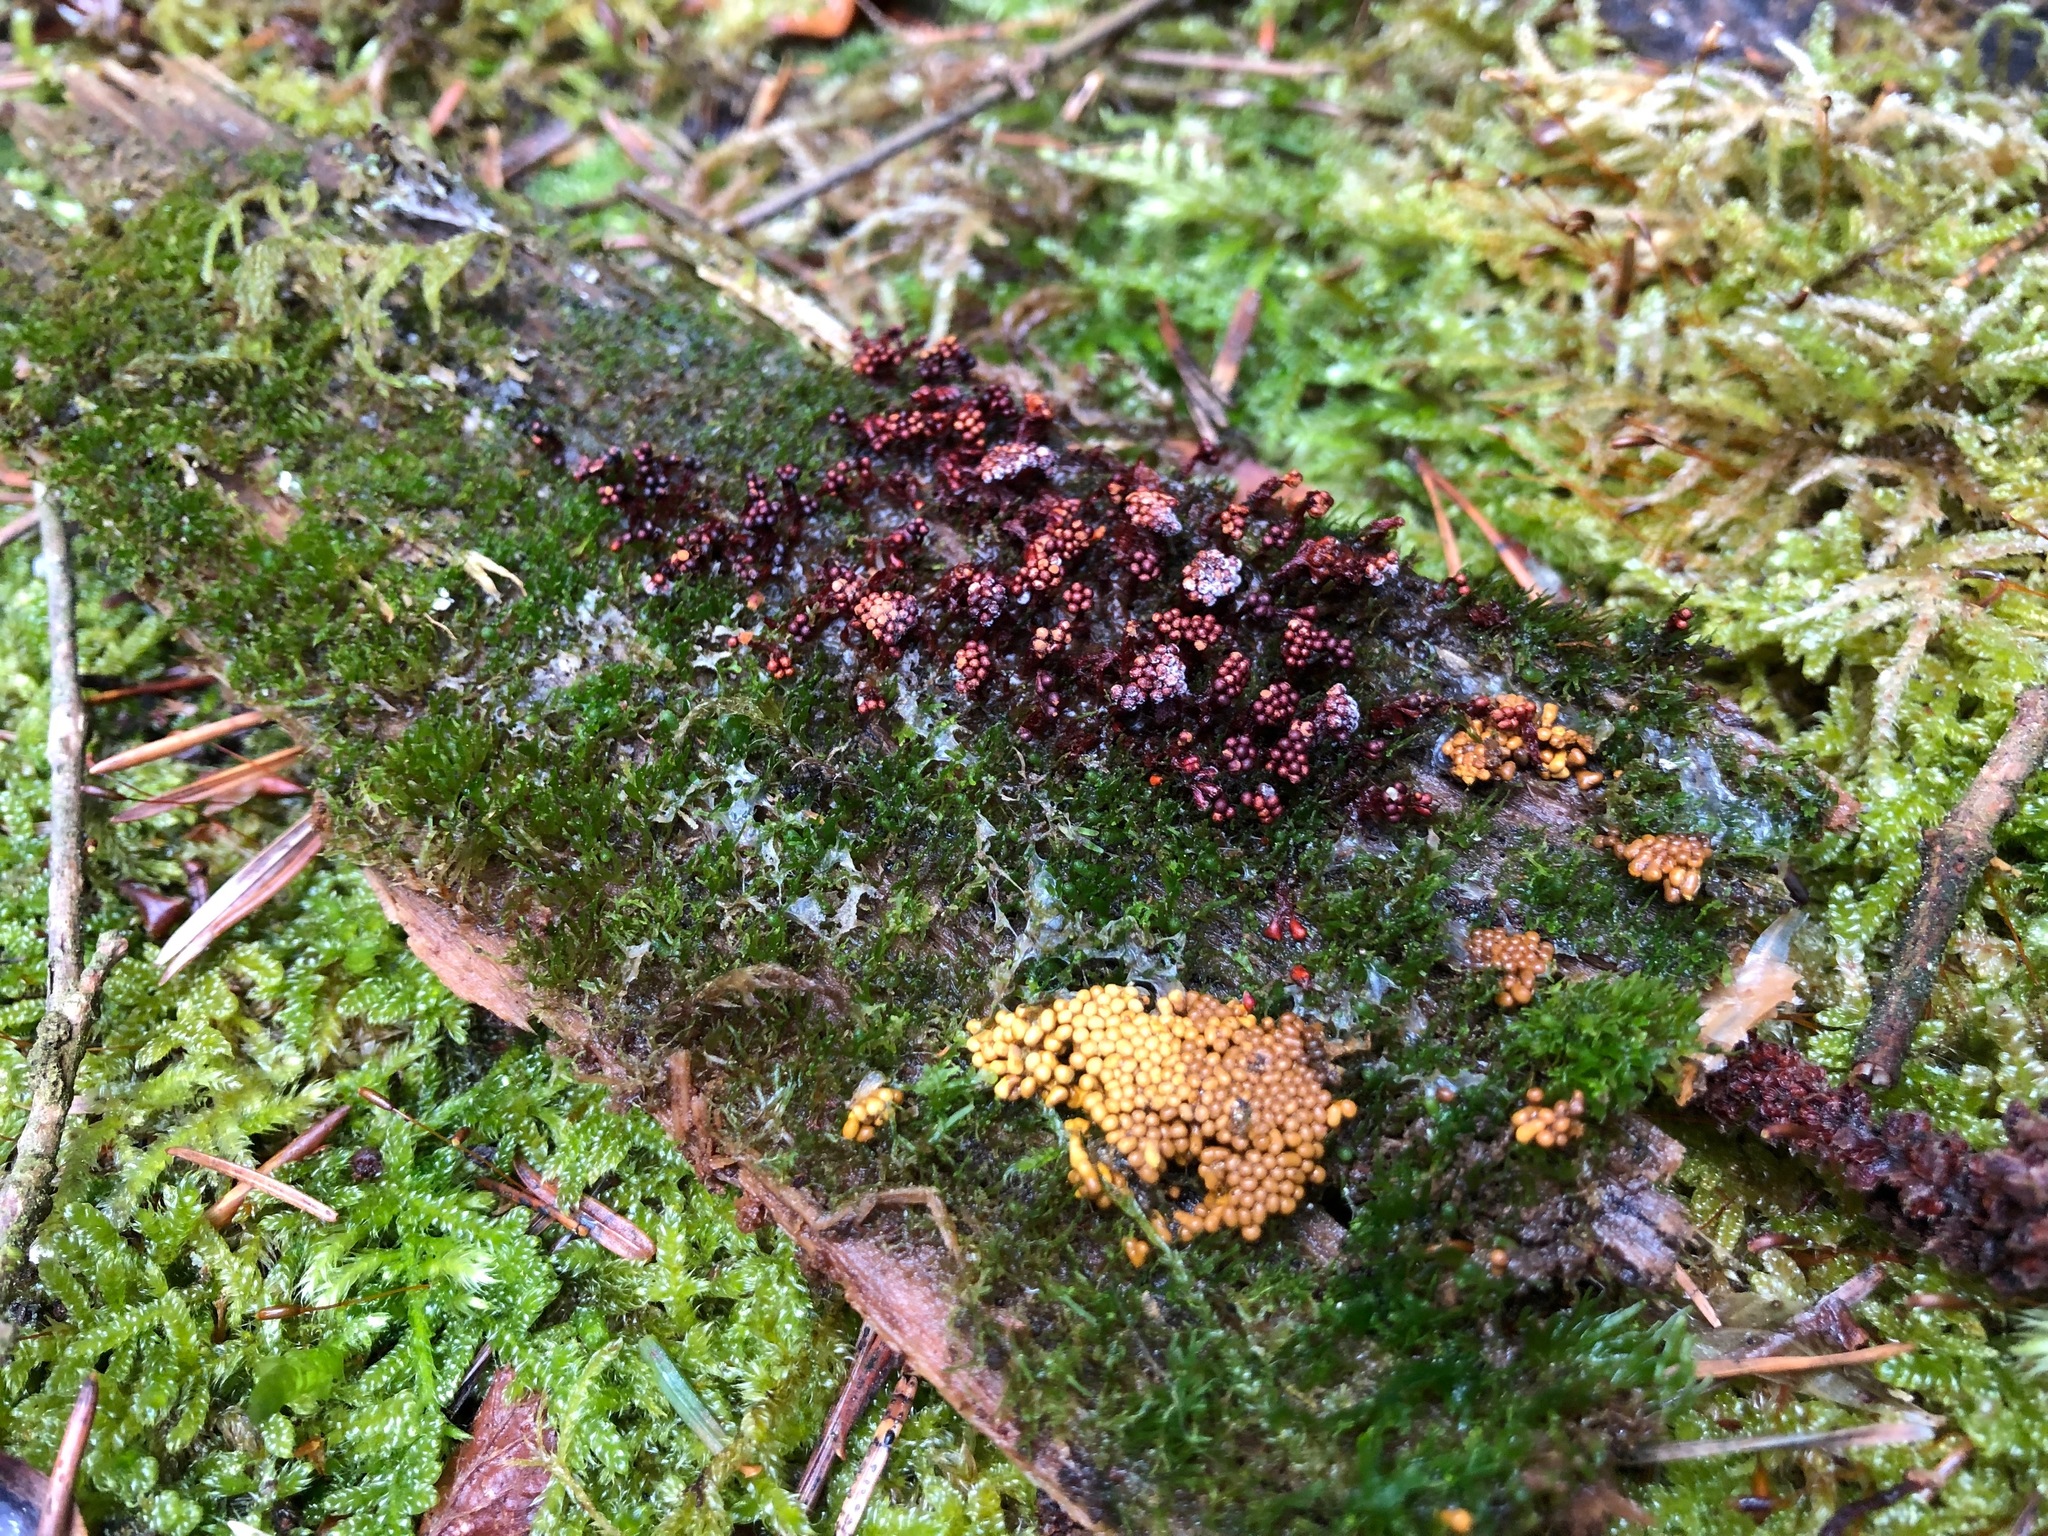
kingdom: Protozoa
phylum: Mycetozoa
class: Myxomycetes
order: Trichiales
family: Trichiaceae
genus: Metatrichia
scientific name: Metatrichia floriformis
